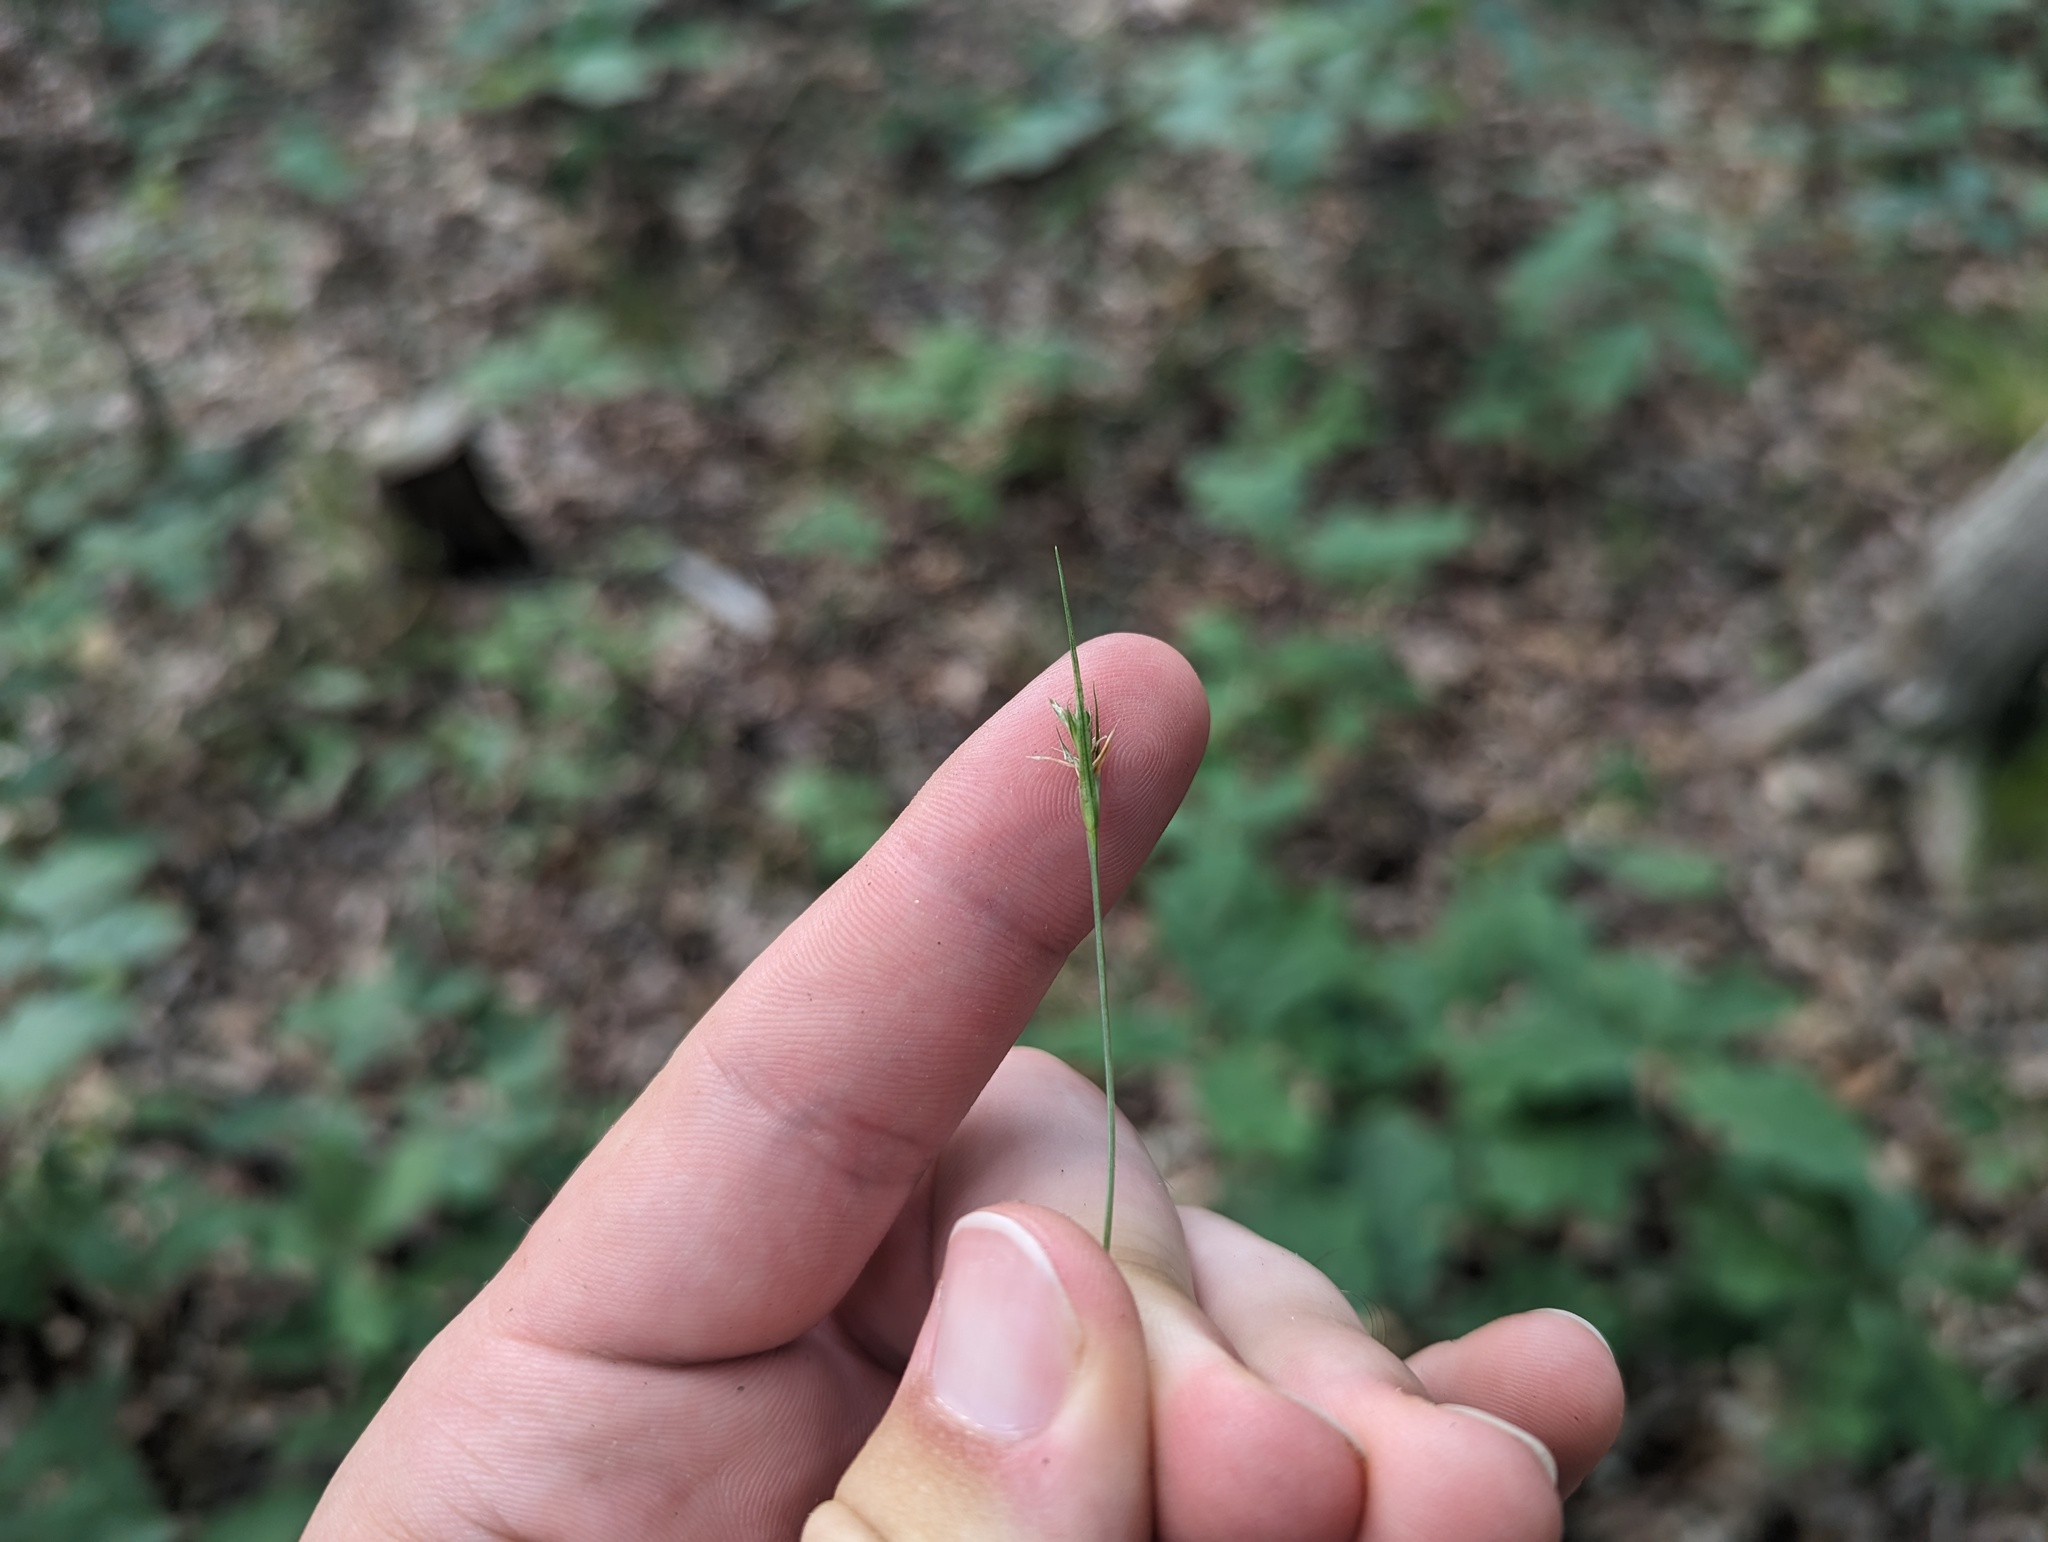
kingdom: Plantae
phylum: Tracheophyta
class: Liliopsida
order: Poales
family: Cyperaceae
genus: Carex
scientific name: Carex willdenowii
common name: Willdenow's sedge
